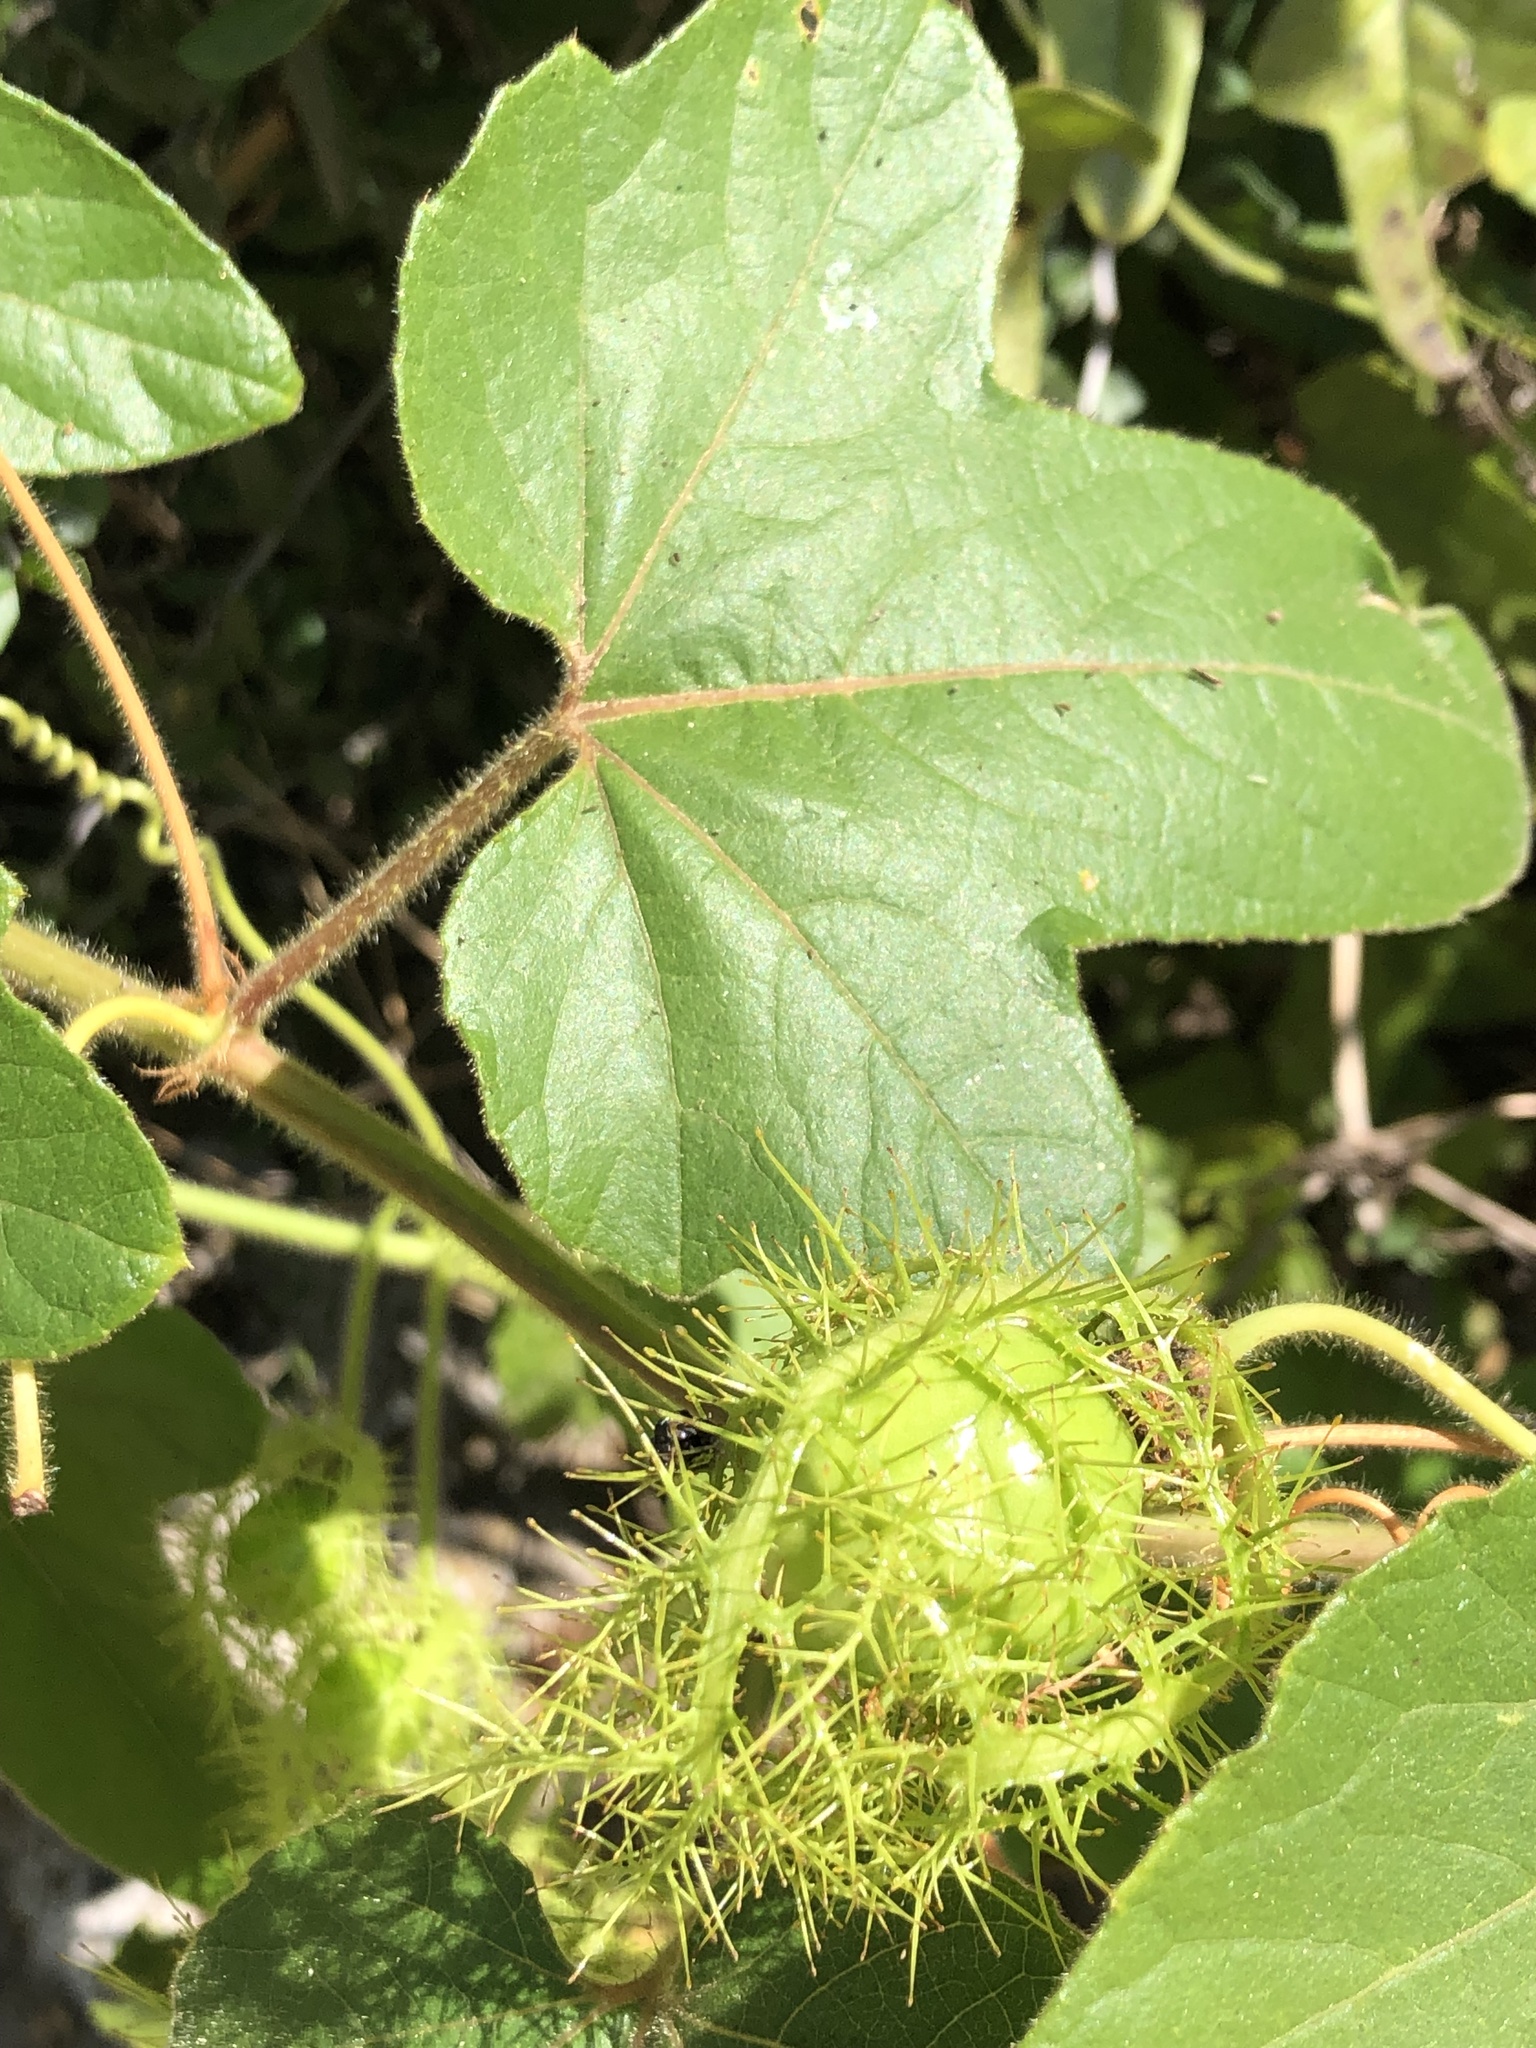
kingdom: Plantae
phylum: Tracheophyta
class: Magnoliopsida
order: Malpighiales
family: Passifloraceae
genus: Passiflora
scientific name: Passiflora
